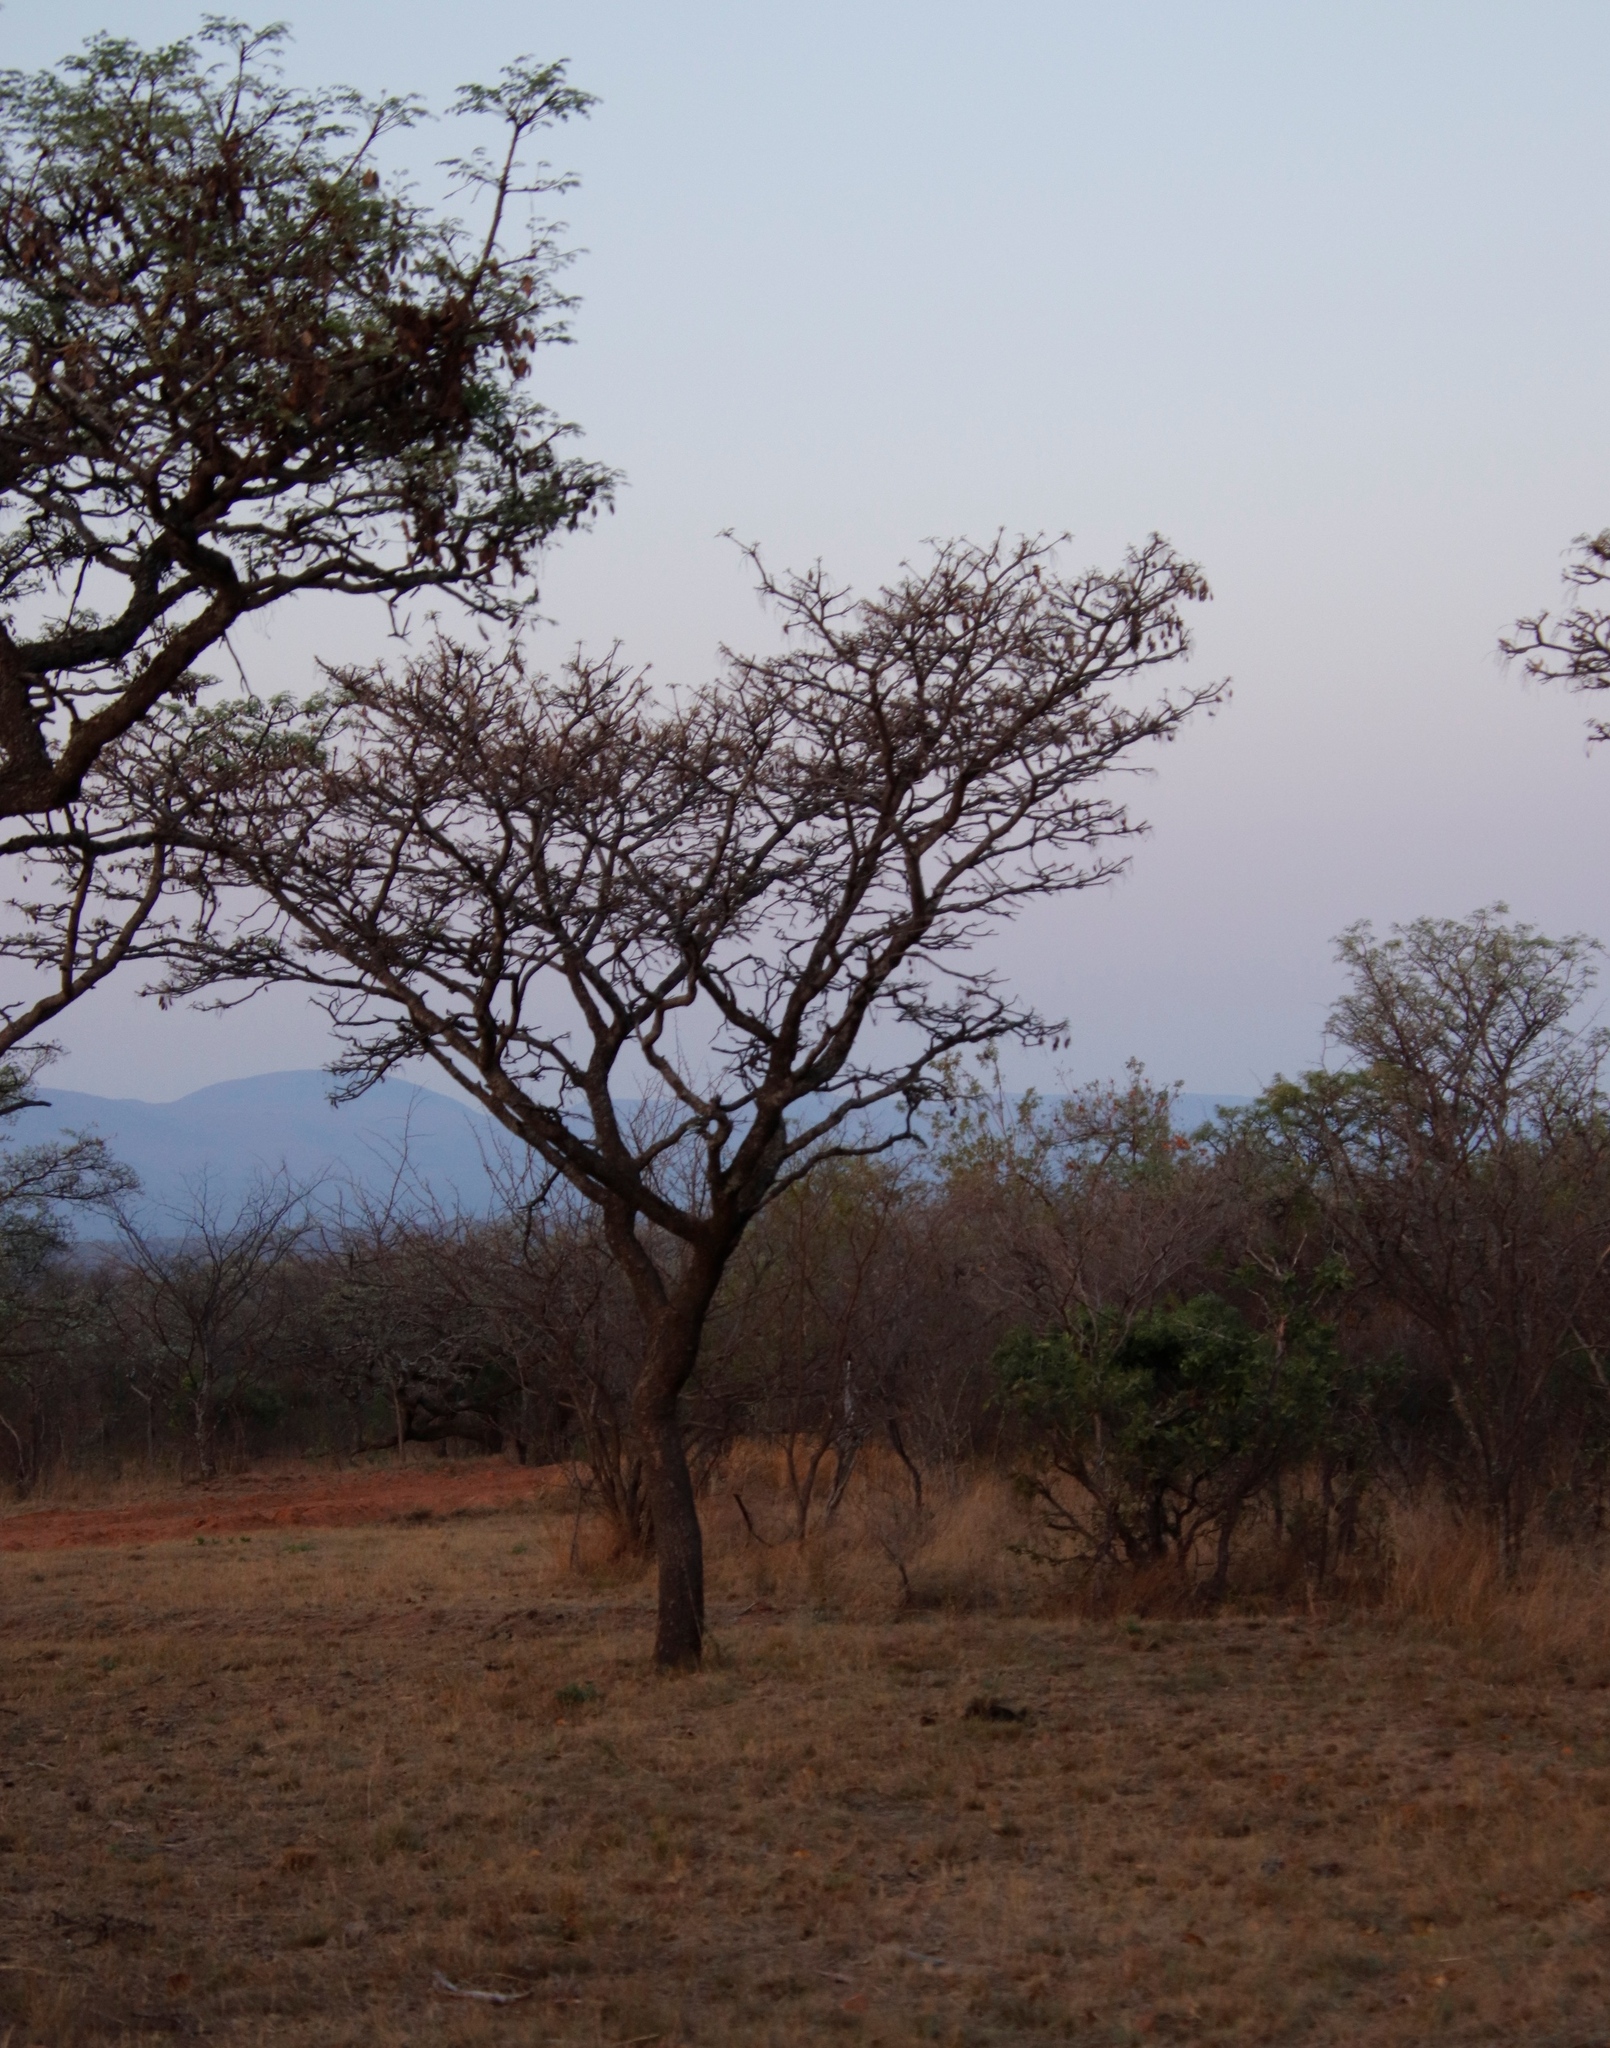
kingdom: Plantae
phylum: Tracheophyta
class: Magnoliopsida
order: Fabales
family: Fabaceae
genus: Burkea
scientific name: Burkea africana
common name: Mkalati tree
